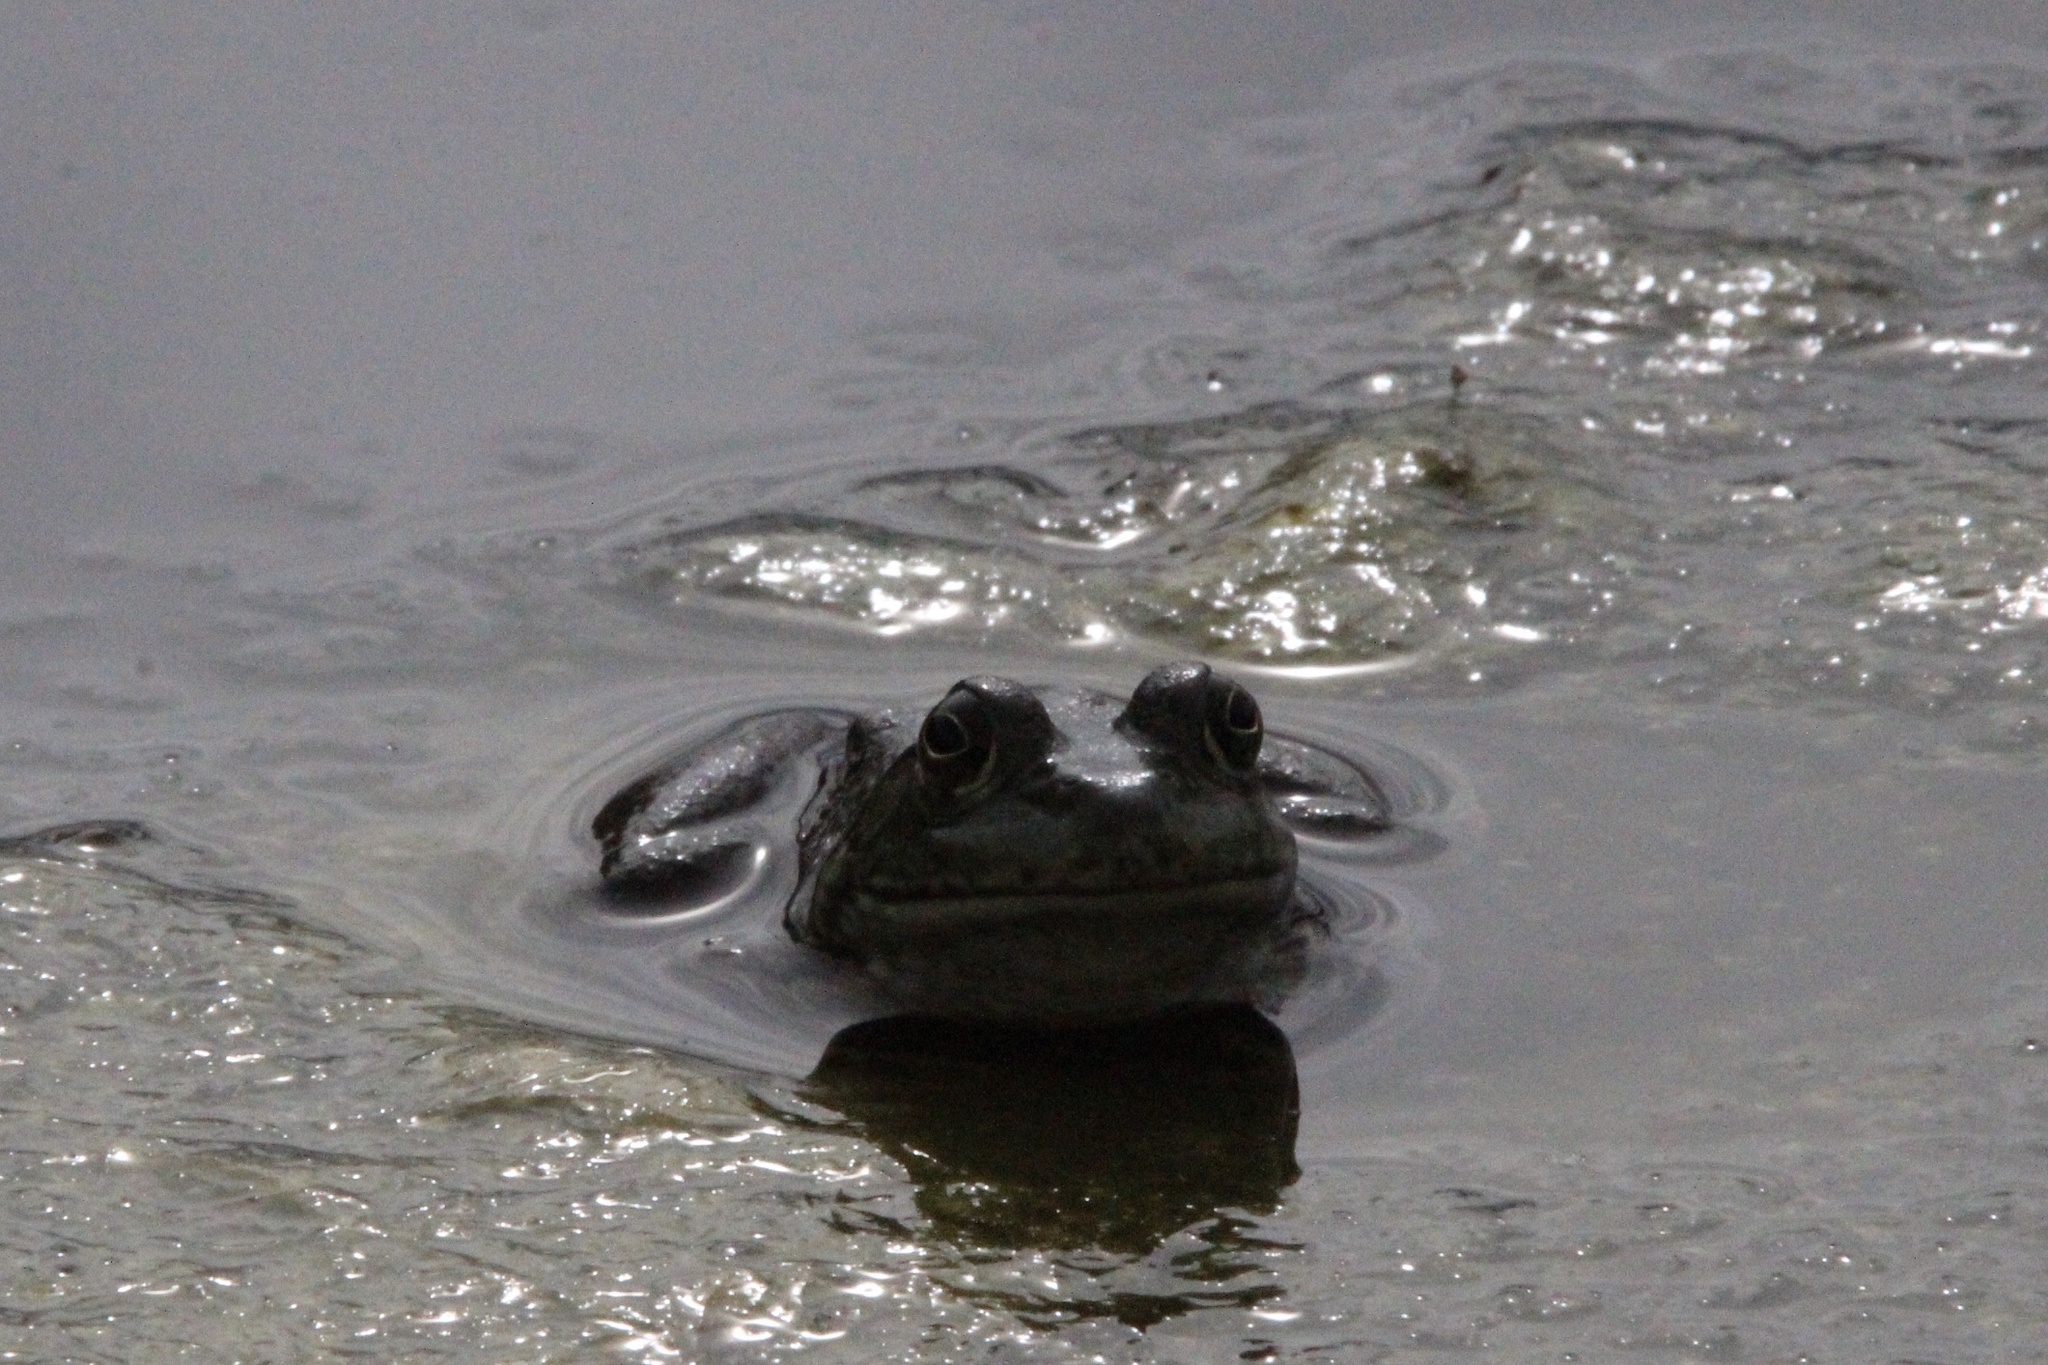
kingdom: Animalia
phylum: Chordata
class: Amphibia
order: Anura
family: Ranidae
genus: Lithobates
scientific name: Lithobates catesbeianus
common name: American bullfrog
